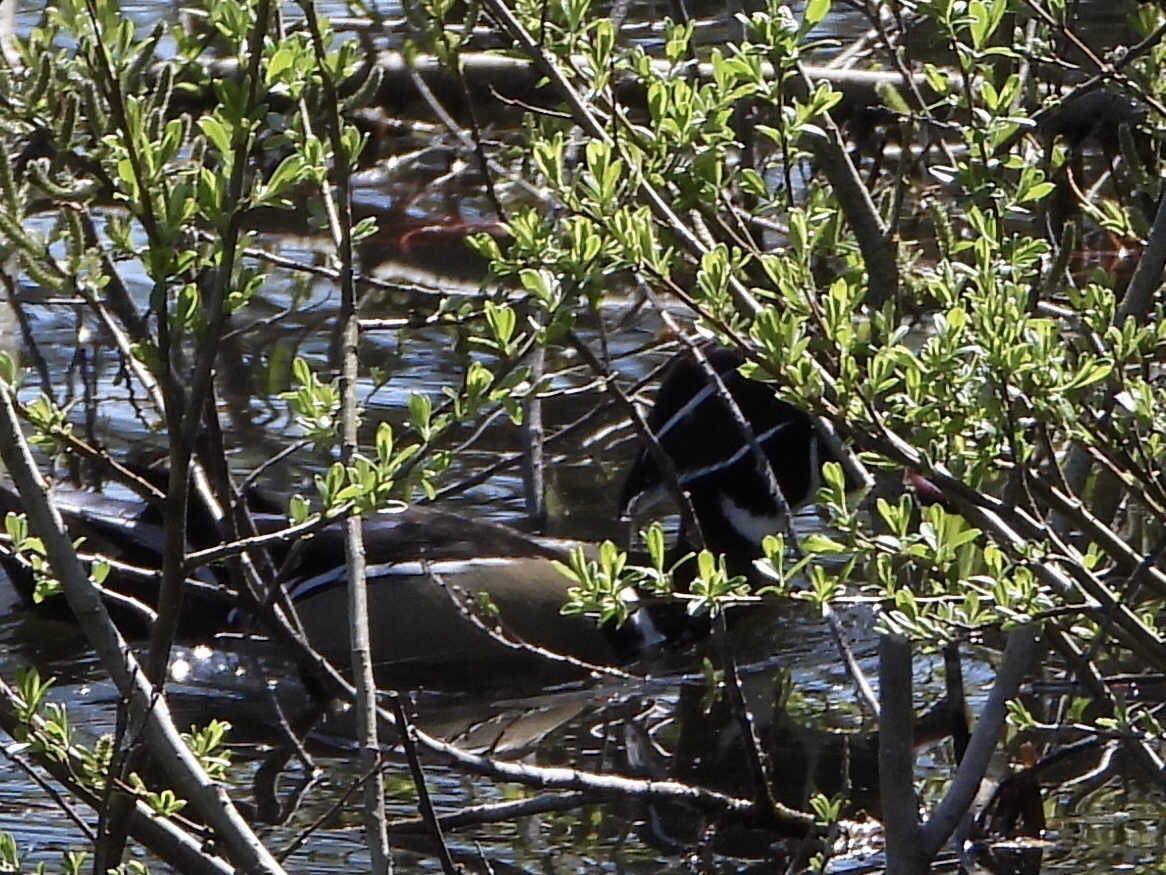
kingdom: Animalia
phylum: Chordata
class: Aves
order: Anseriformes
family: Anatidae
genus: Aix
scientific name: Aix sponsa
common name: Wood duck
